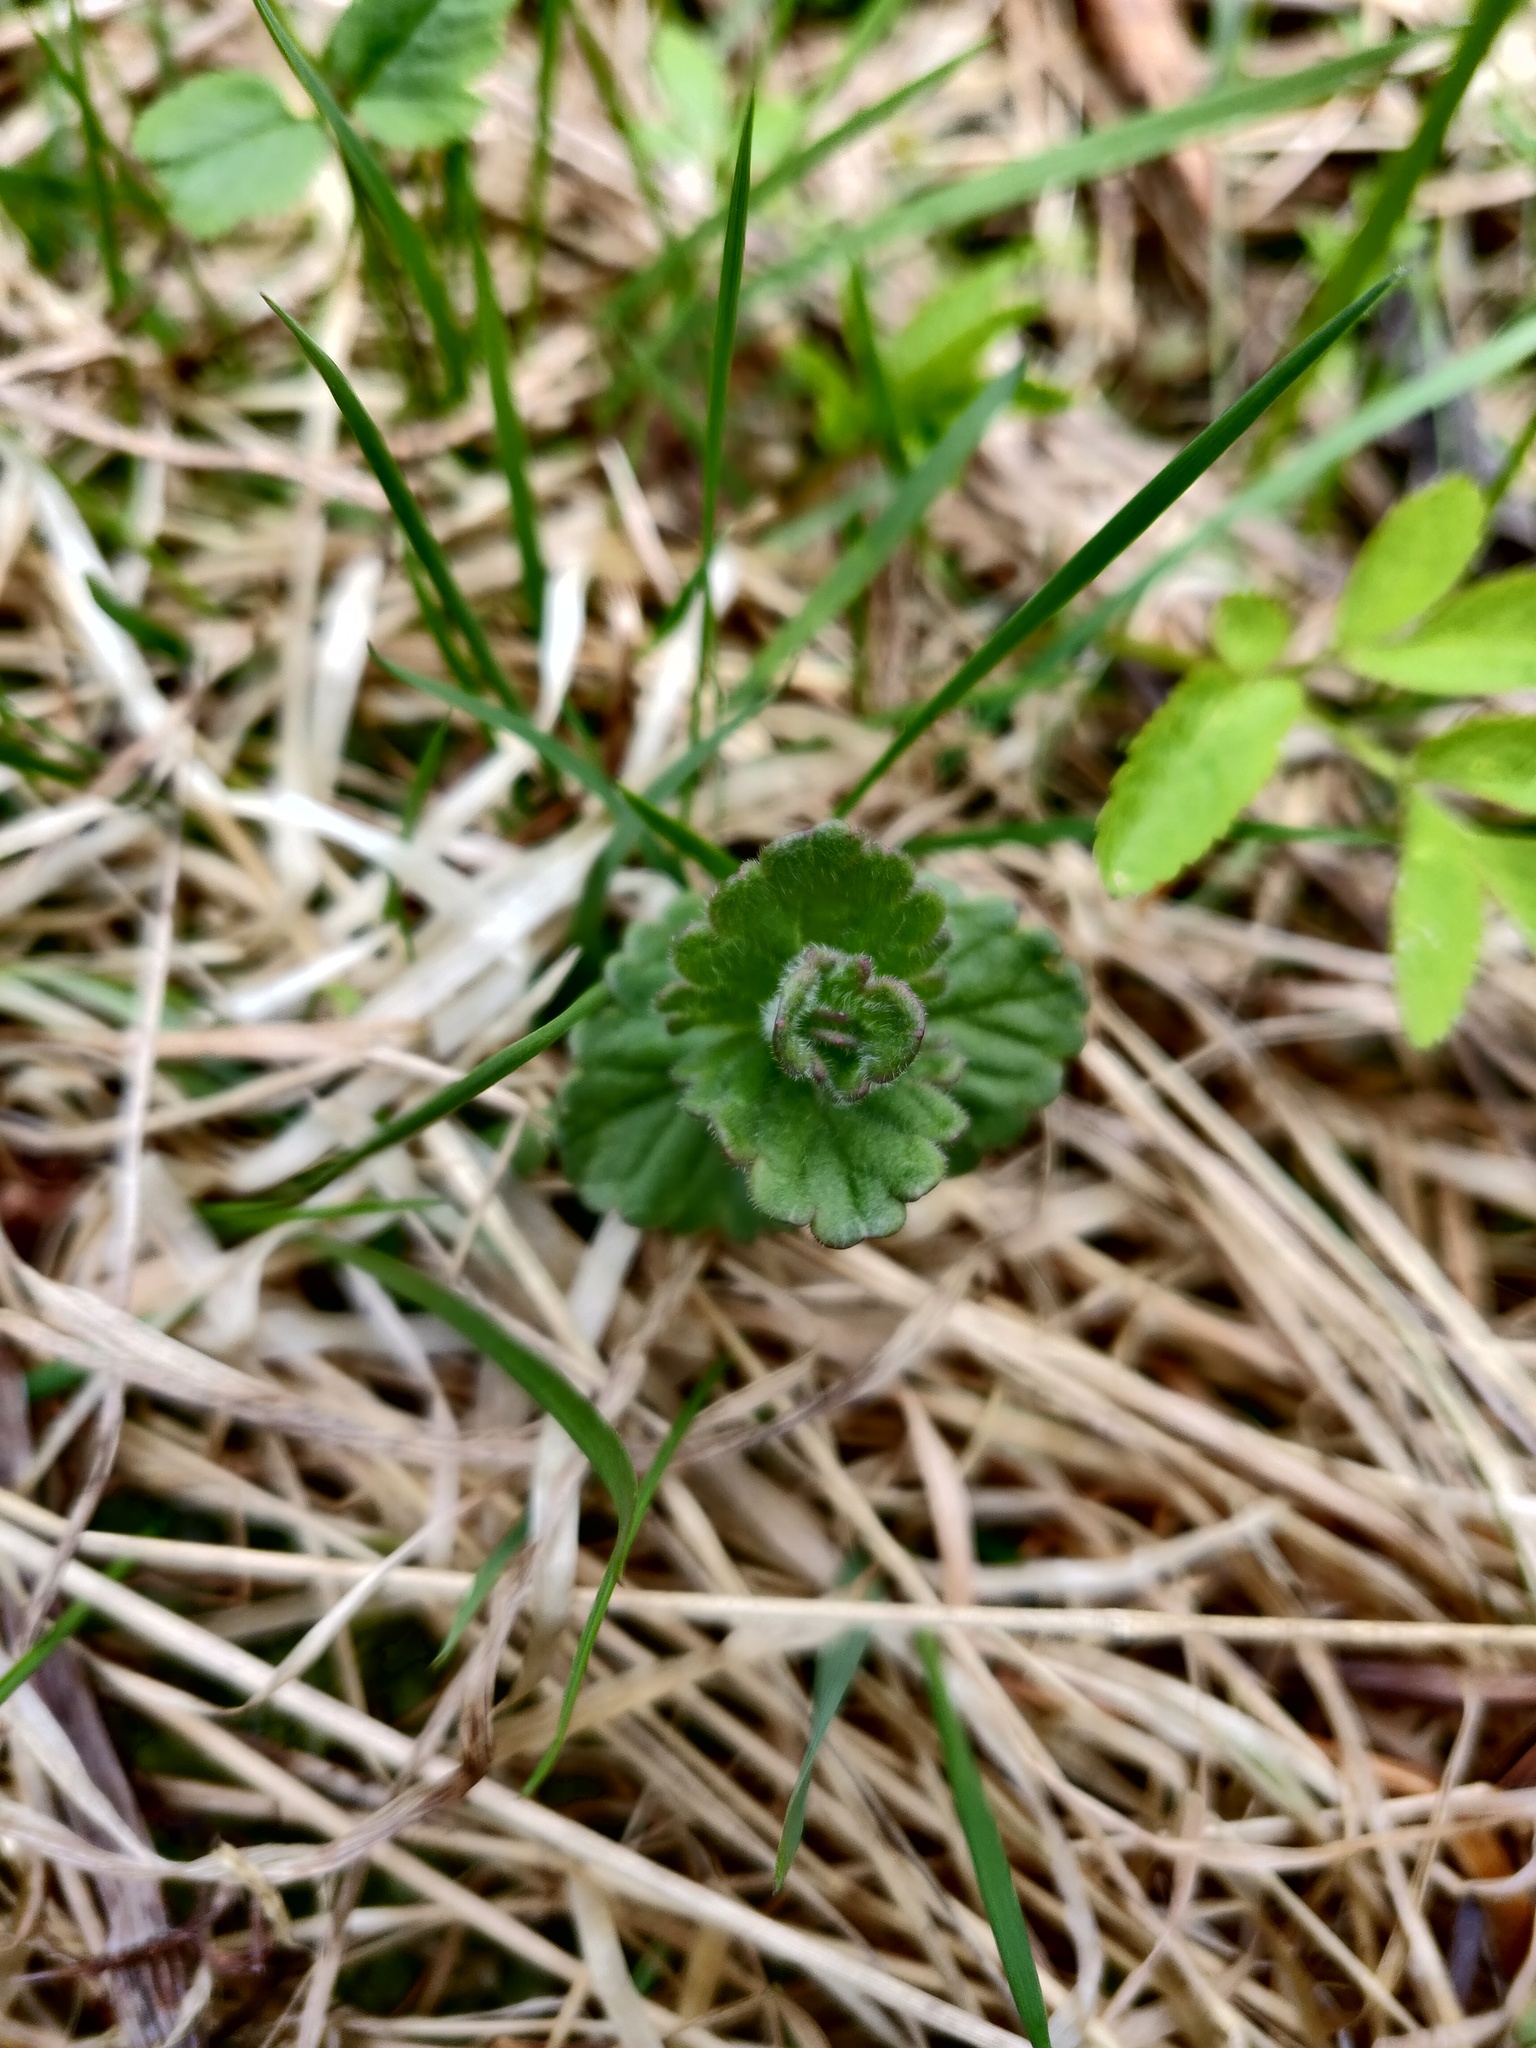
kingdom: Plantae
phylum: Tracheophyta
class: Magnoliopsida
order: Lamiales
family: Plantaginaceae
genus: Veronica
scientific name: Veronica chamaedrys
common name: Germander speedwell
